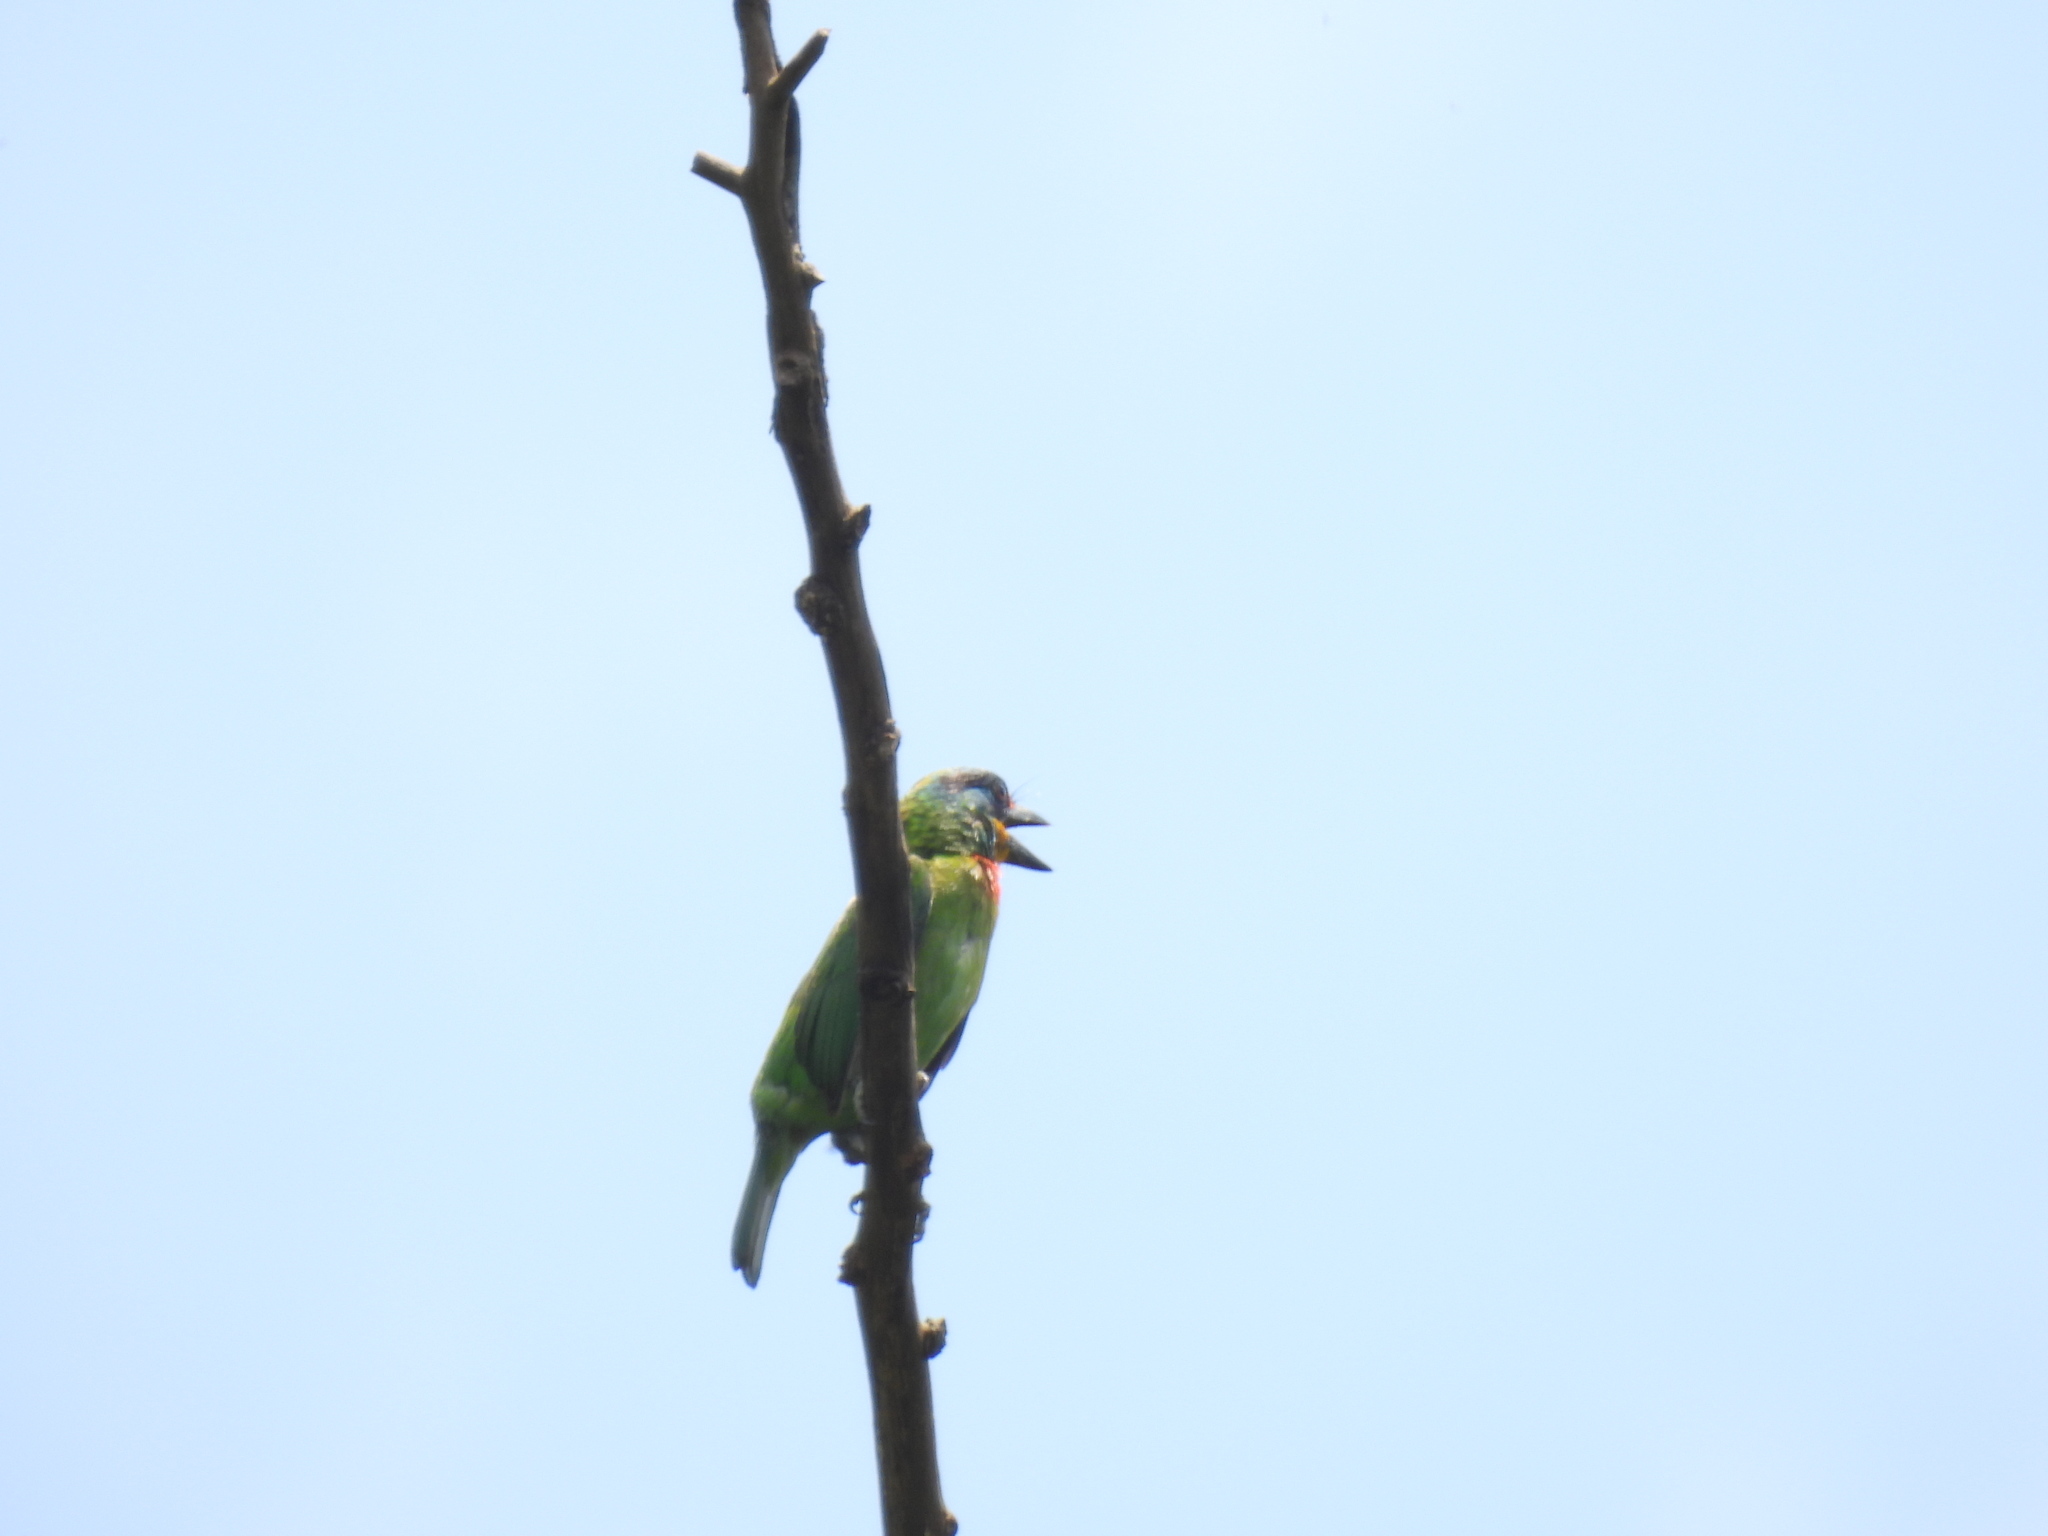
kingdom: Animalia
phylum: Chordata
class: Aves
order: Piciformes
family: Megalaimidae
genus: Psilopogon
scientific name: Psilopogon nuchalis
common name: Taiwan barbet
